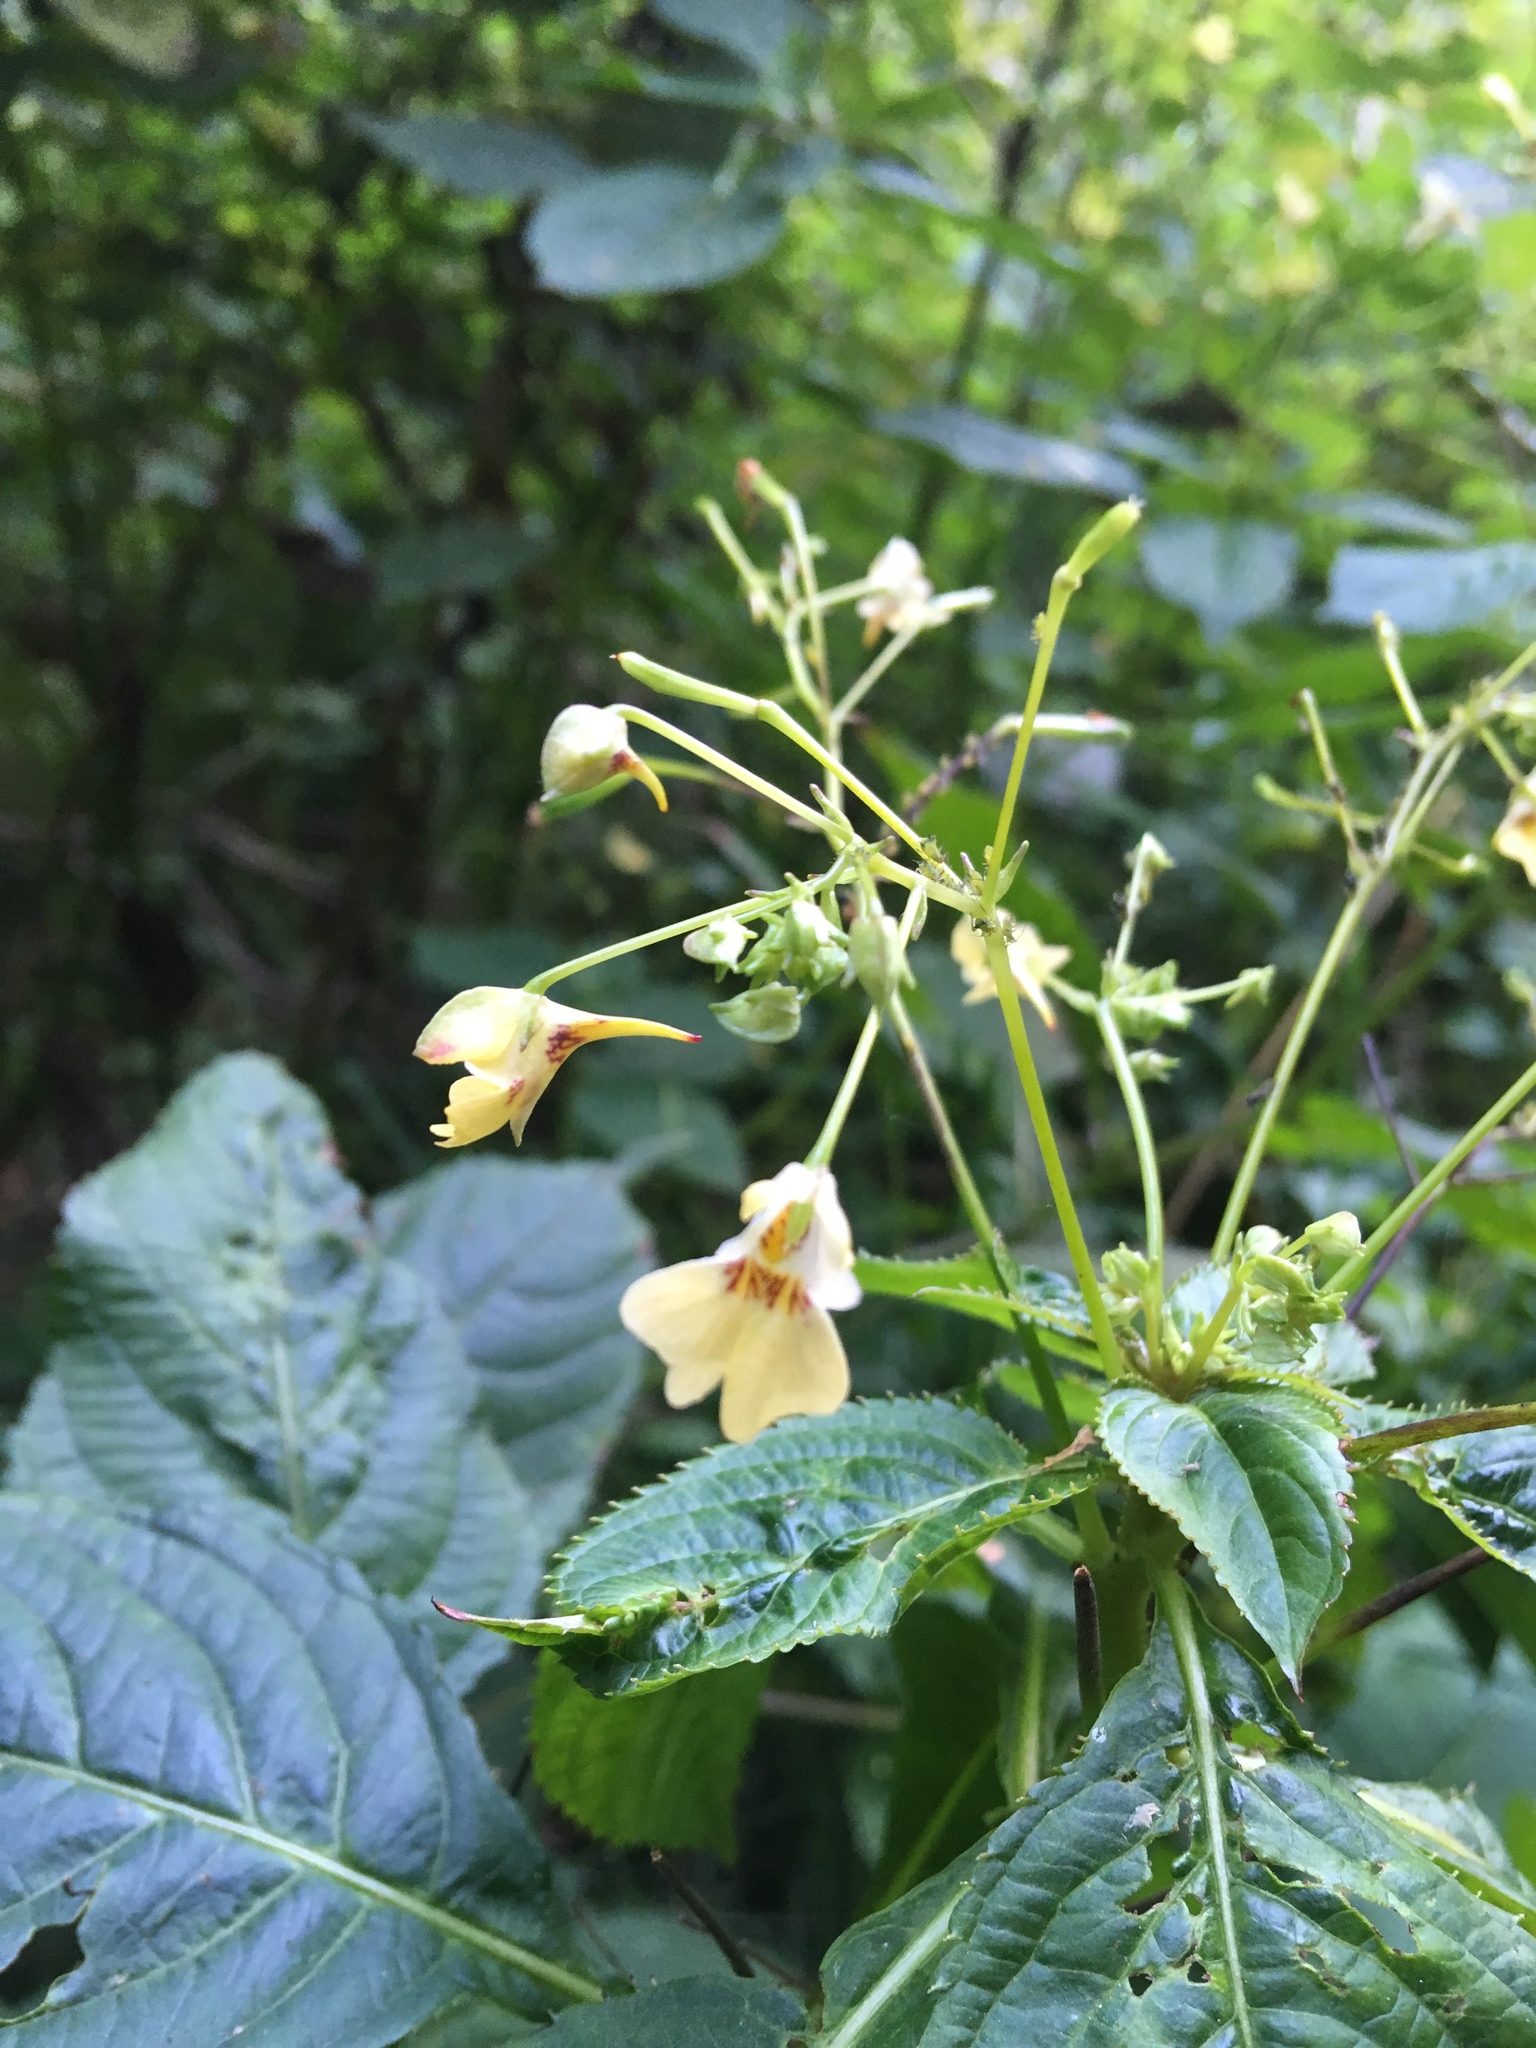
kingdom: Plantae
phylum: Tracheophyta
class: Magnoliopsida
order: Ericales
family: Balsaminaceae
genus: Impatiens
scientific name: Impatiens parviflora
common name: Small balsam
